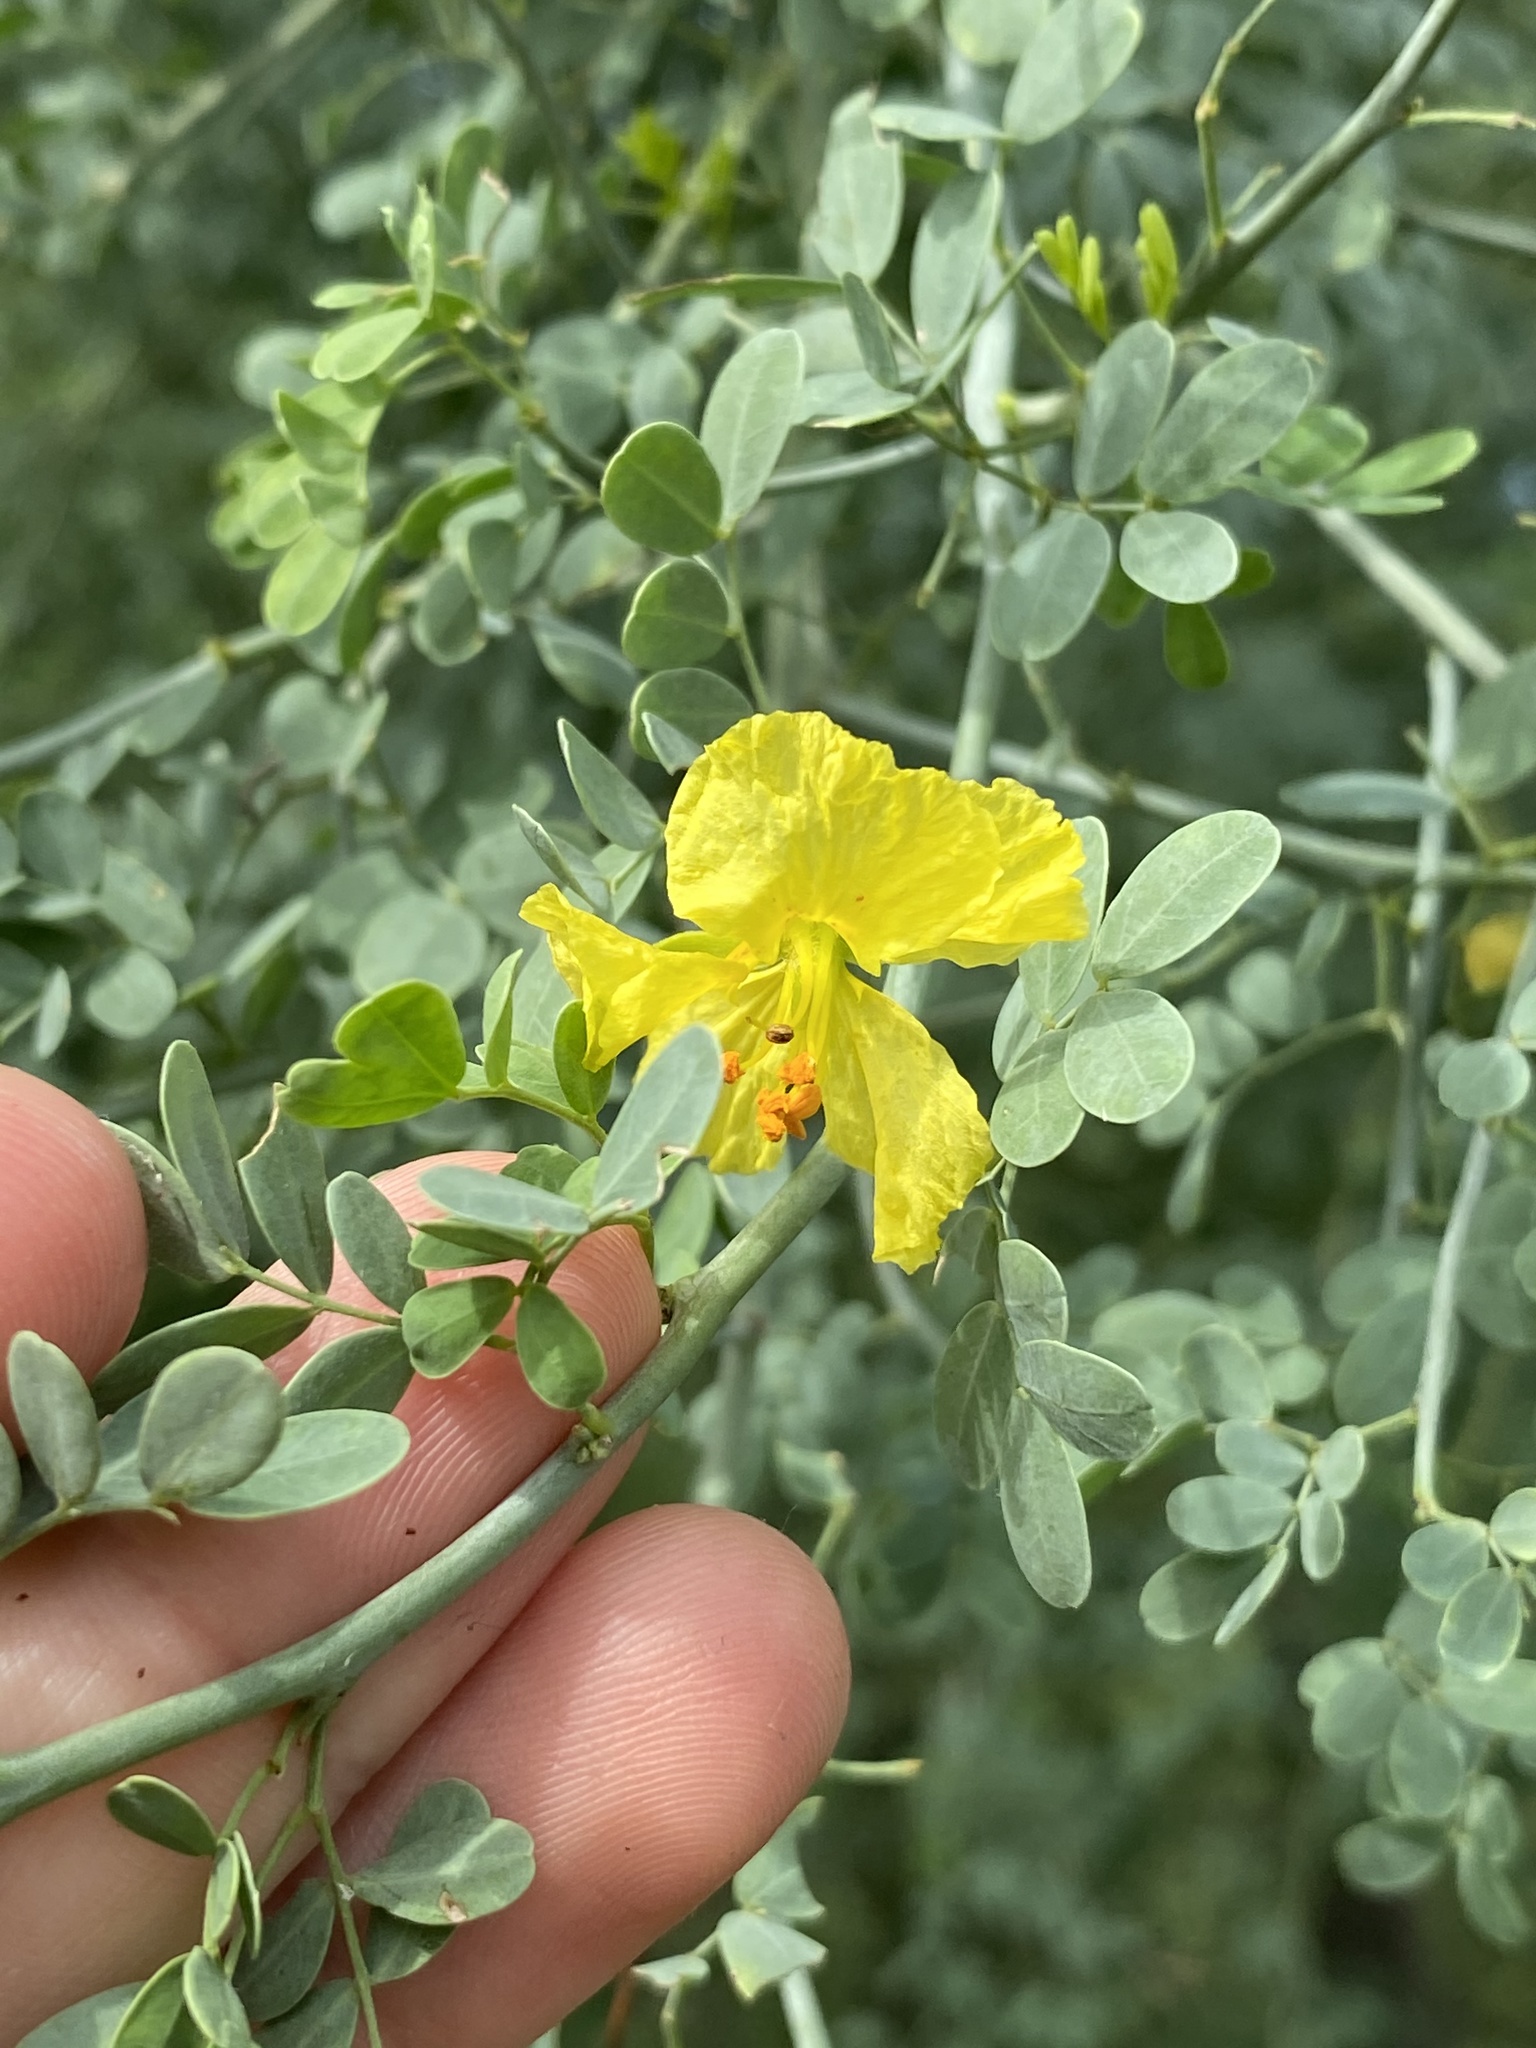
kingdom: Plantae
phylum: Tracheophyta
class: Magnoliopsida
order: Fabales
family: Fabaceae
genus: Parkinsonia
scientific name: Parkinsonia florida
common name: Blue paloverde
